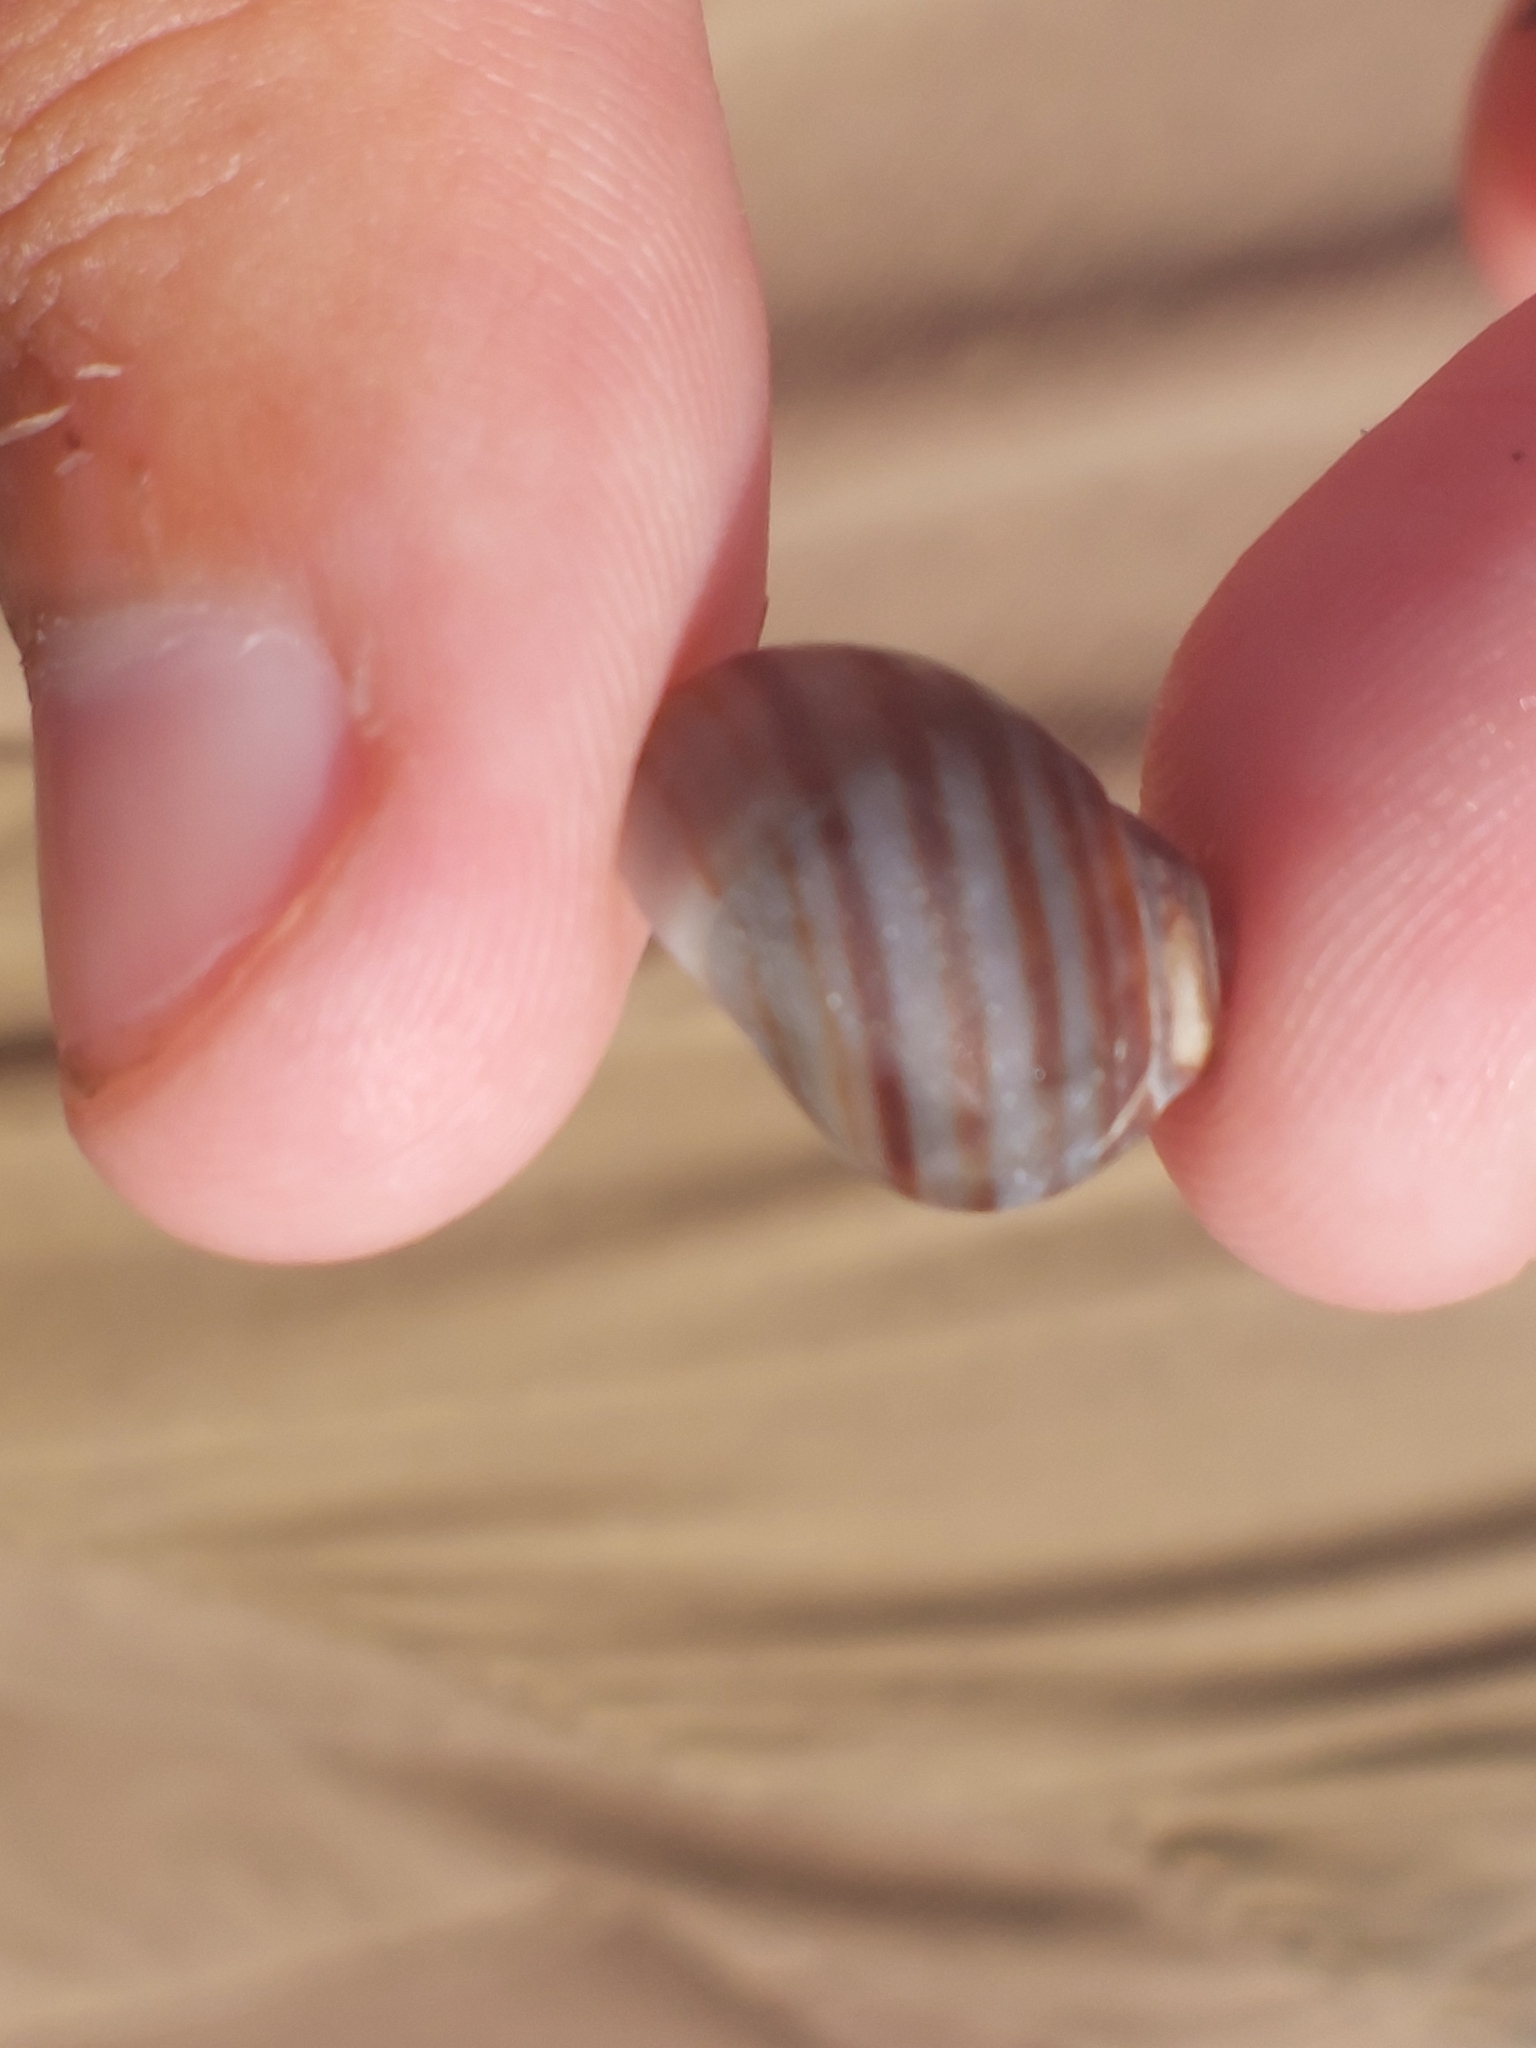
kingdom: Animalia
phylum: Mollusca
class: Gastropoda
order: Littorinimorpha
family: Littorinidae
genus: Littorina
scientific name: Littorina littorea
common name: Common periwinkle
